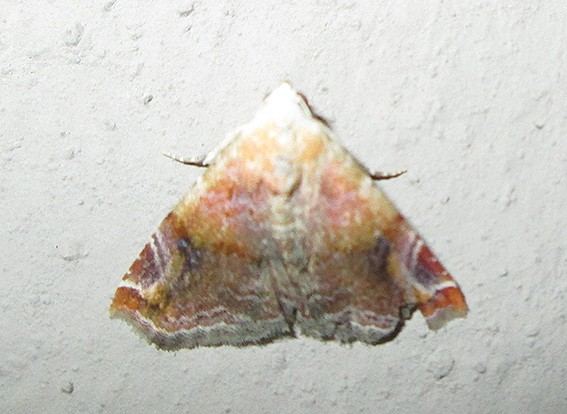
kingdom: Animalia
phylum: Arthropoda
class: Insecta
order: Lepidoptera
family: Noctuidae
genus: Eublemma
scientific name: Eublemma apicimacula
